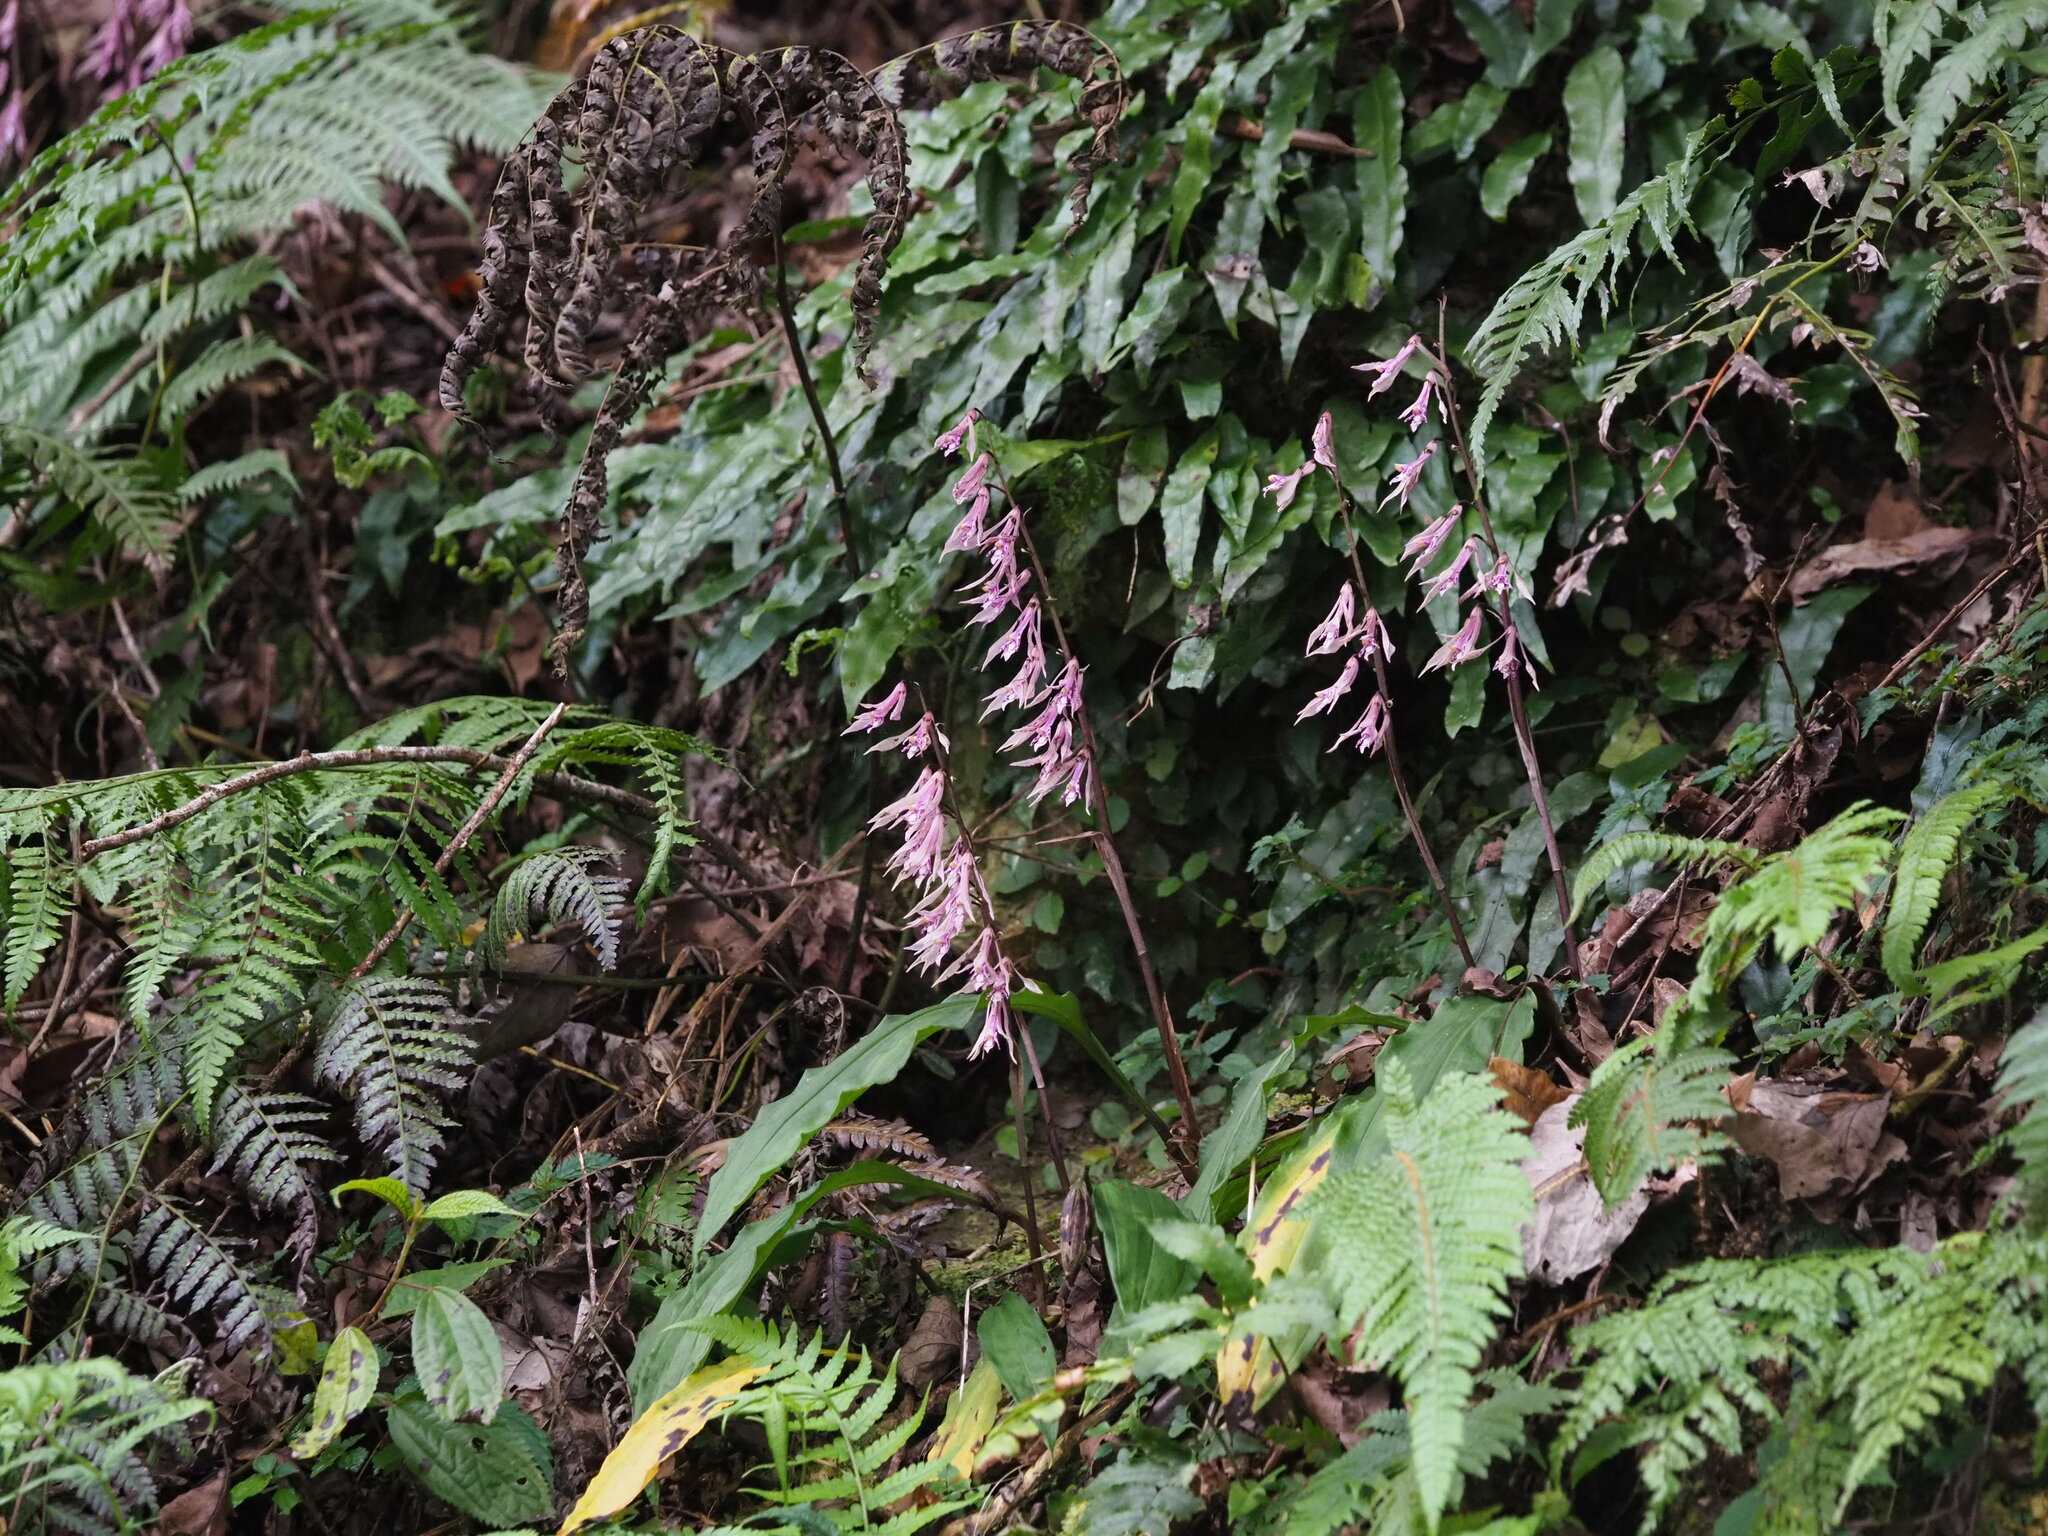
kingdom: Plantae
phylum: Tracheophyta
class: Liliopsida
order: Asparagales
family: Orchidaceae
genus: Cremastra
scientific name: Cremastra appendiculata
